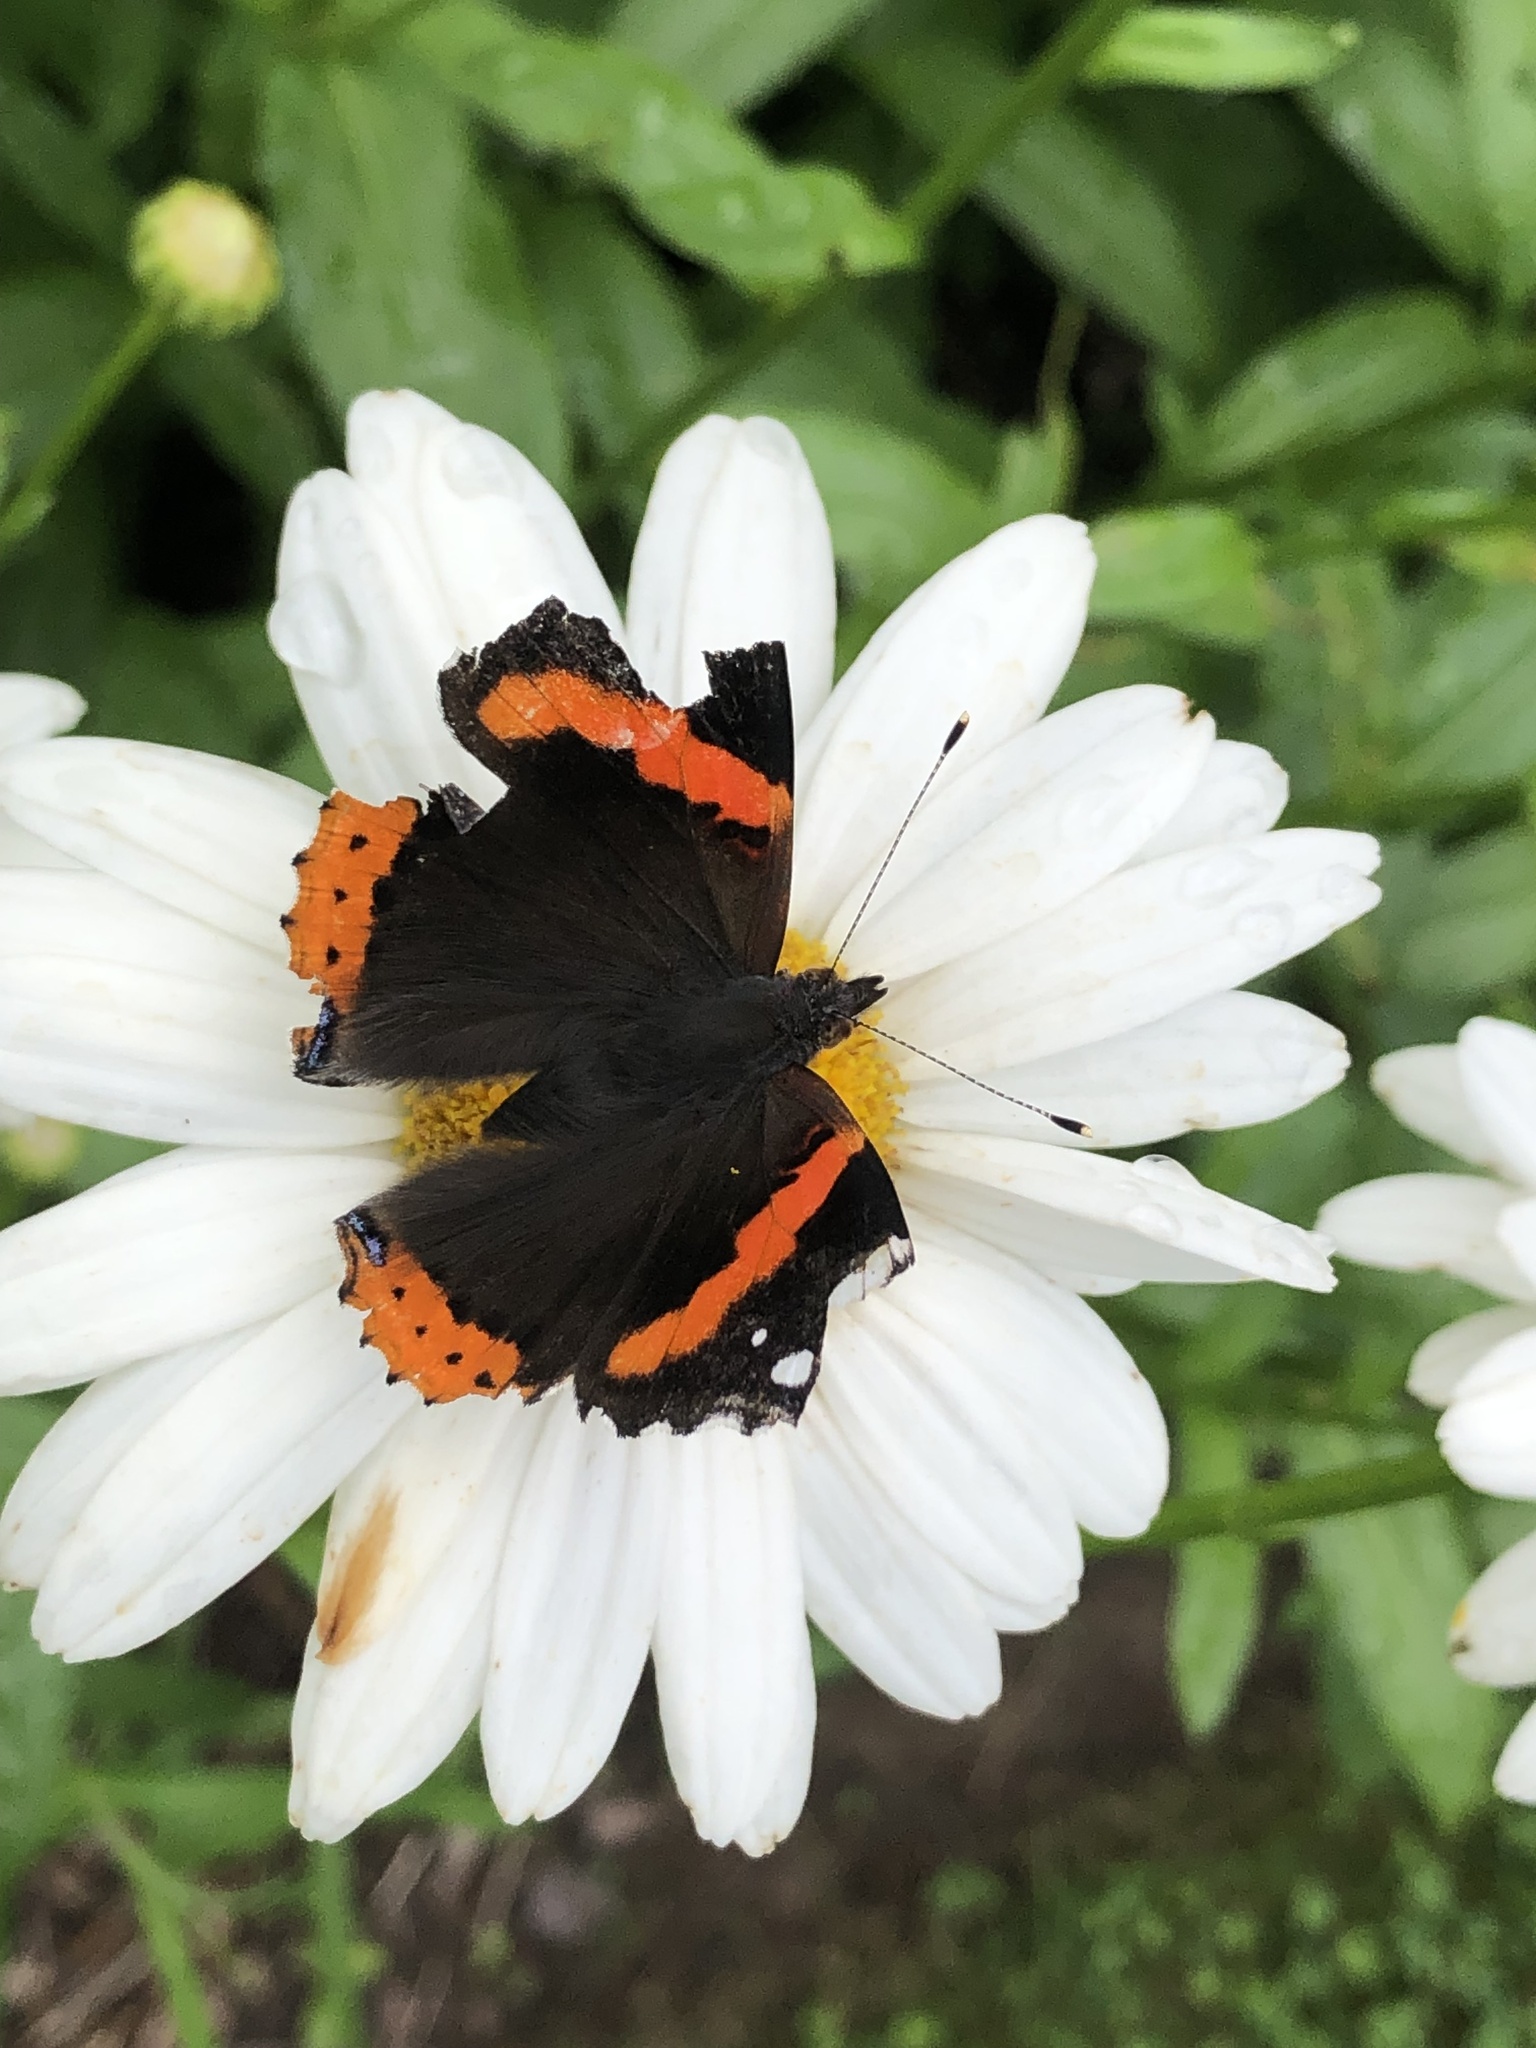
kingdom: Animalia
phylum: Arthropoda
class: Insecta
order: Lepidoptera
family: Nymphalidae
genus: Vanessa
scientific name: Vanessa atalanta
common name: Red admiral
